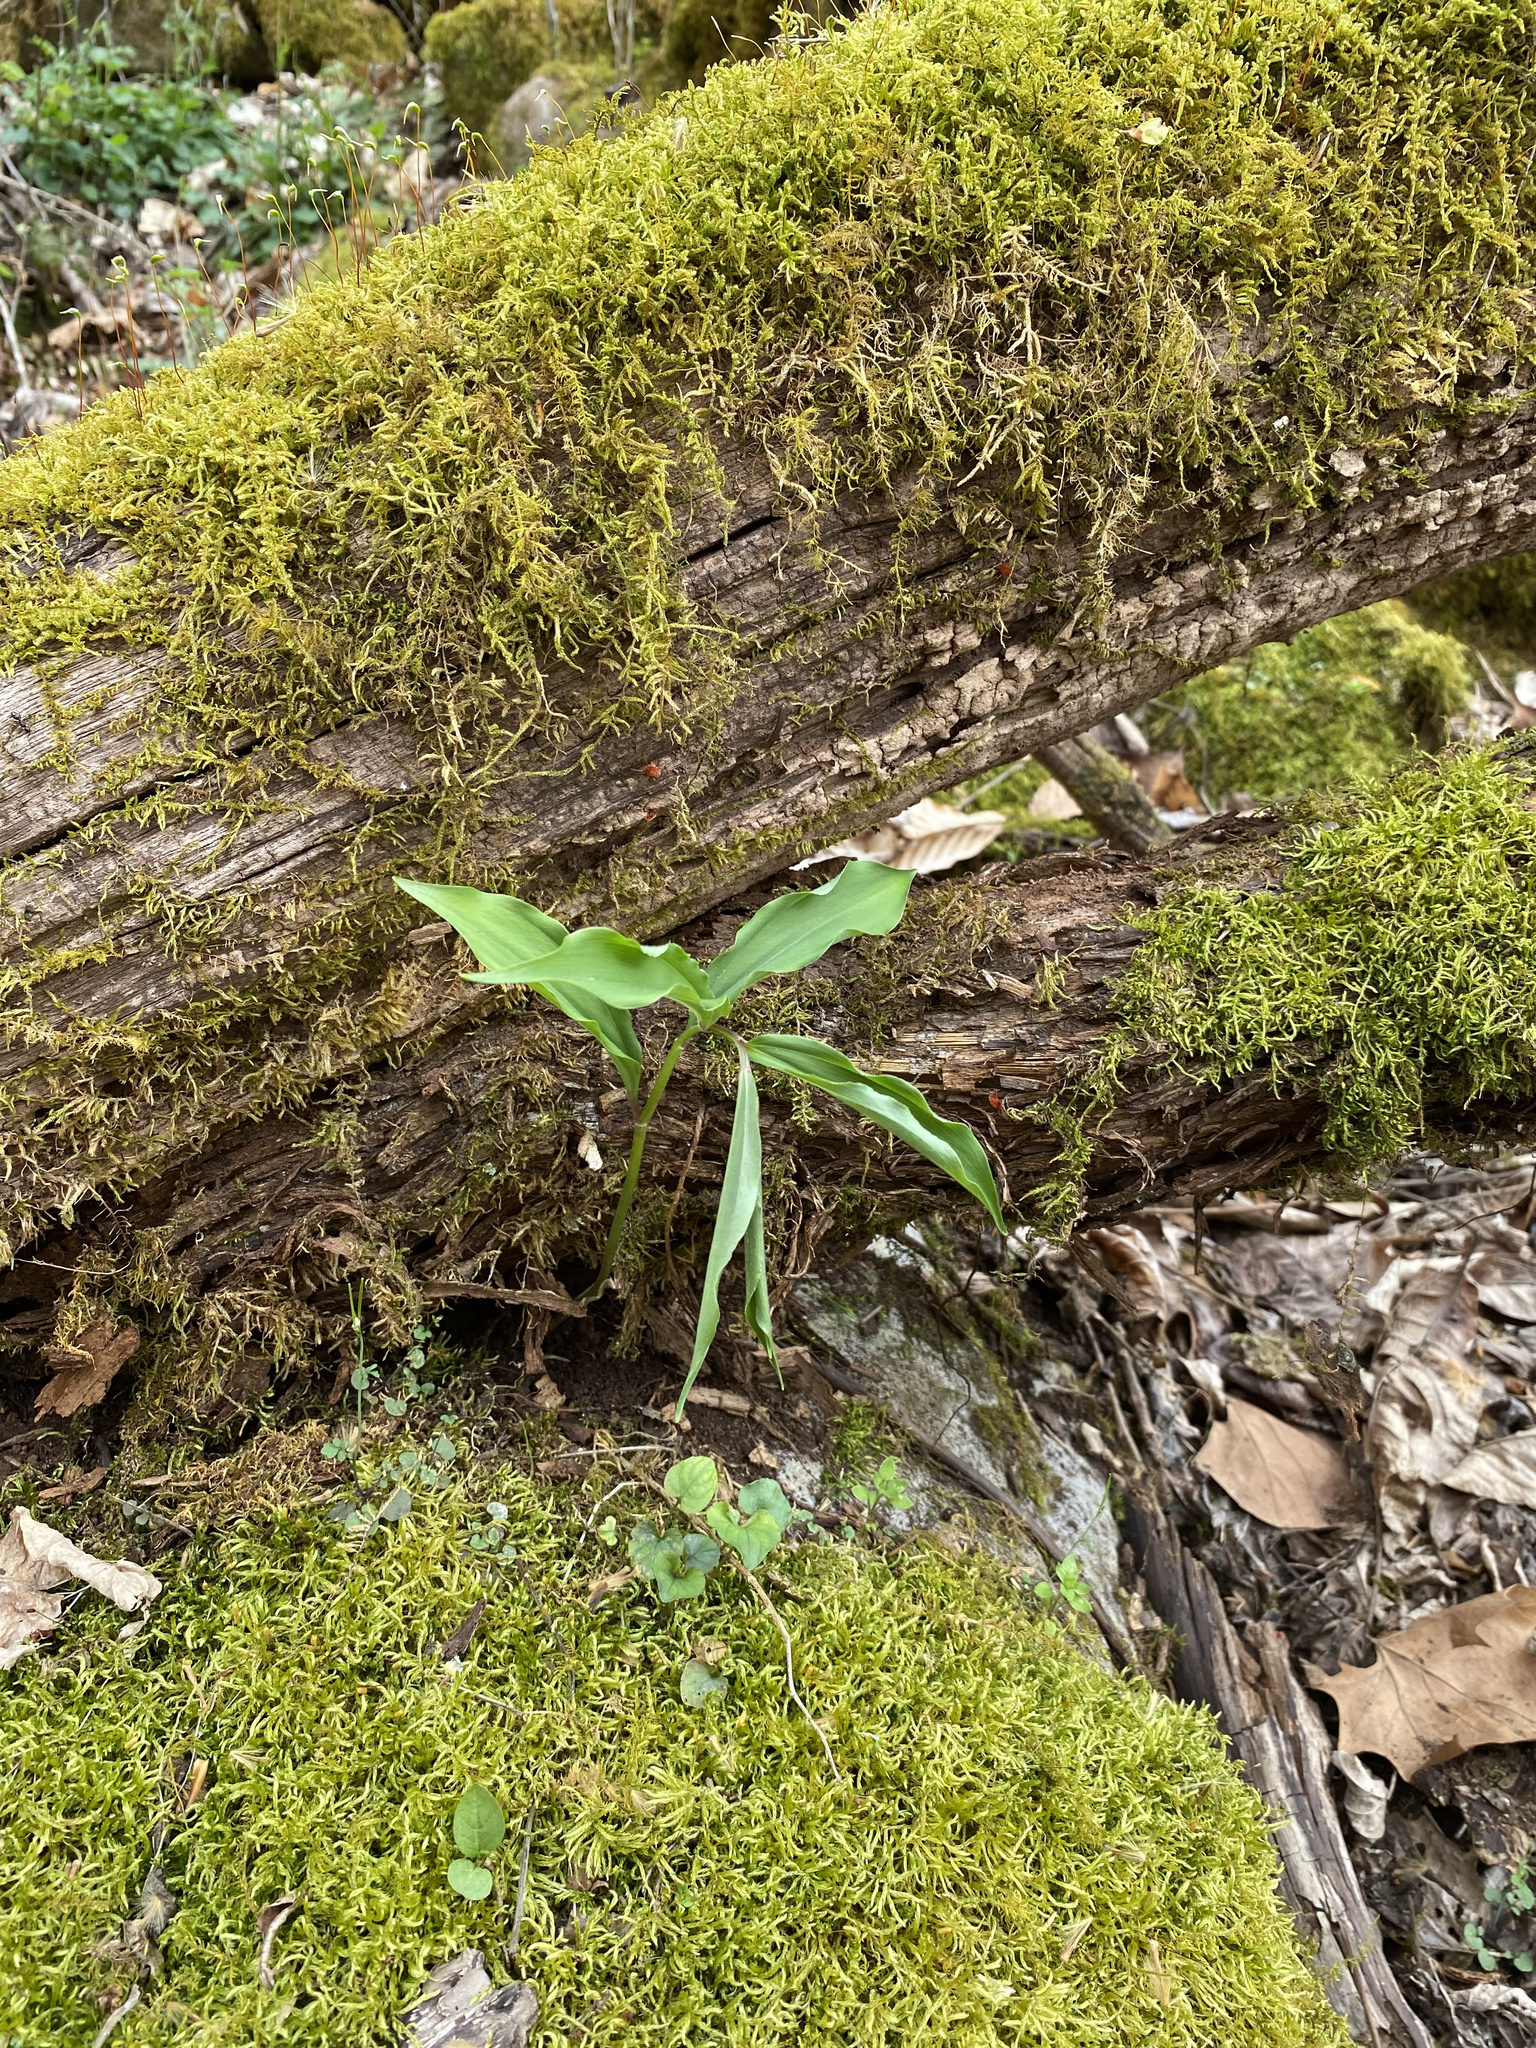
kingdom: Plantae
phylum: Tracheophyta
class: Liliopsida
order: Asparagales
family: Asparagaceae
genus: Maianthemum
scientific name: Maianthemum racemosum
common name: False spikenard
